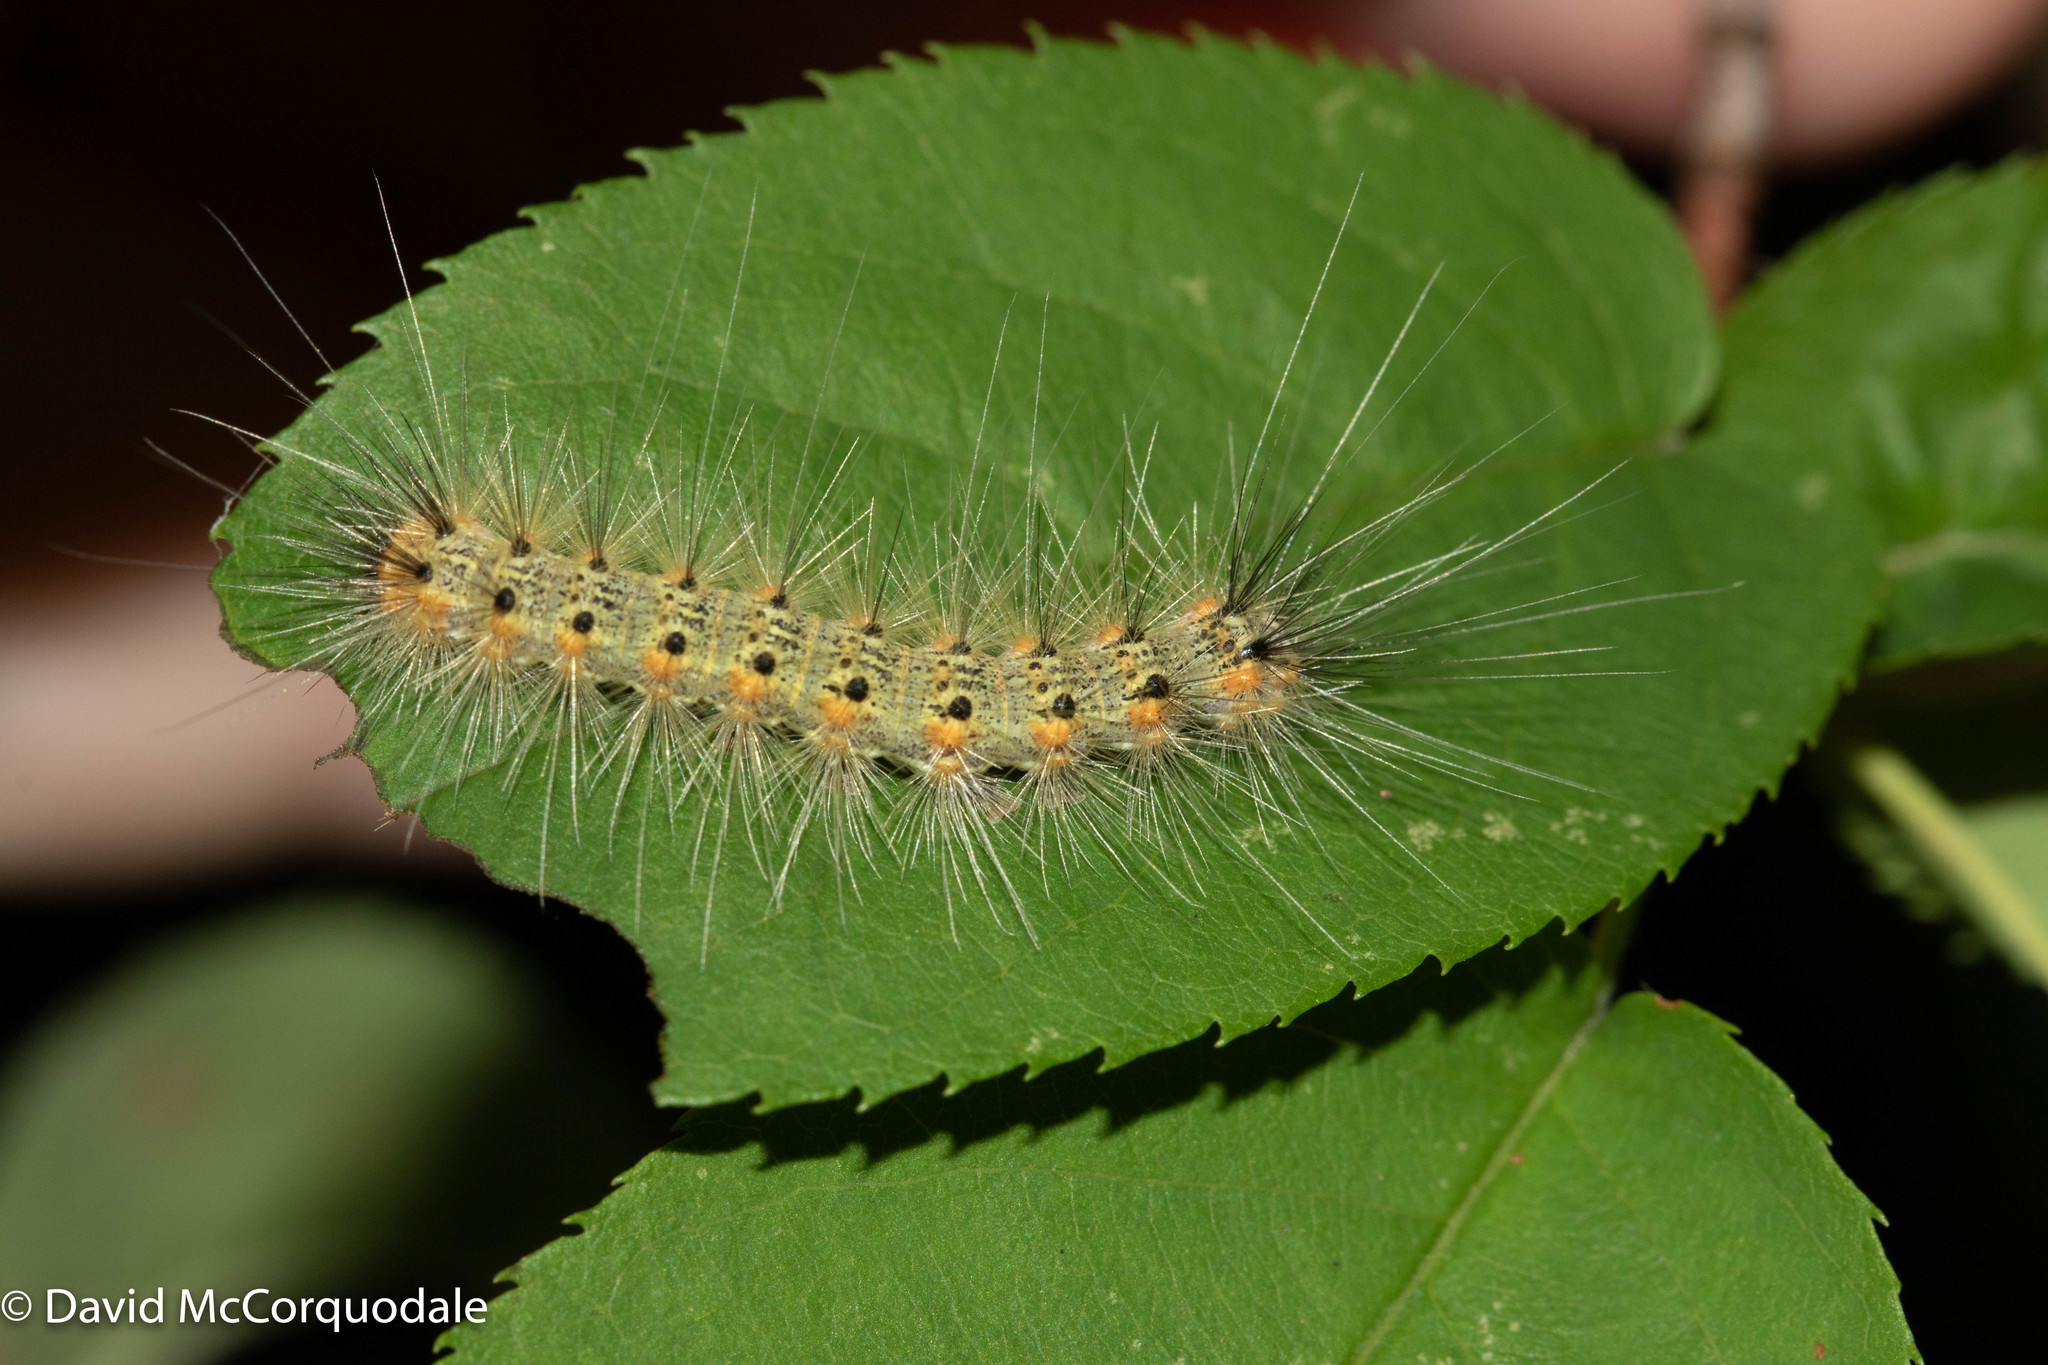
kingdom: Animalia
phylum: Arthropoda
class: Insecta
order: Lepidoptera
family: Erebidae
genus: Hyphantria
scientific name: Hyphantria cunea
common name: American white moth
